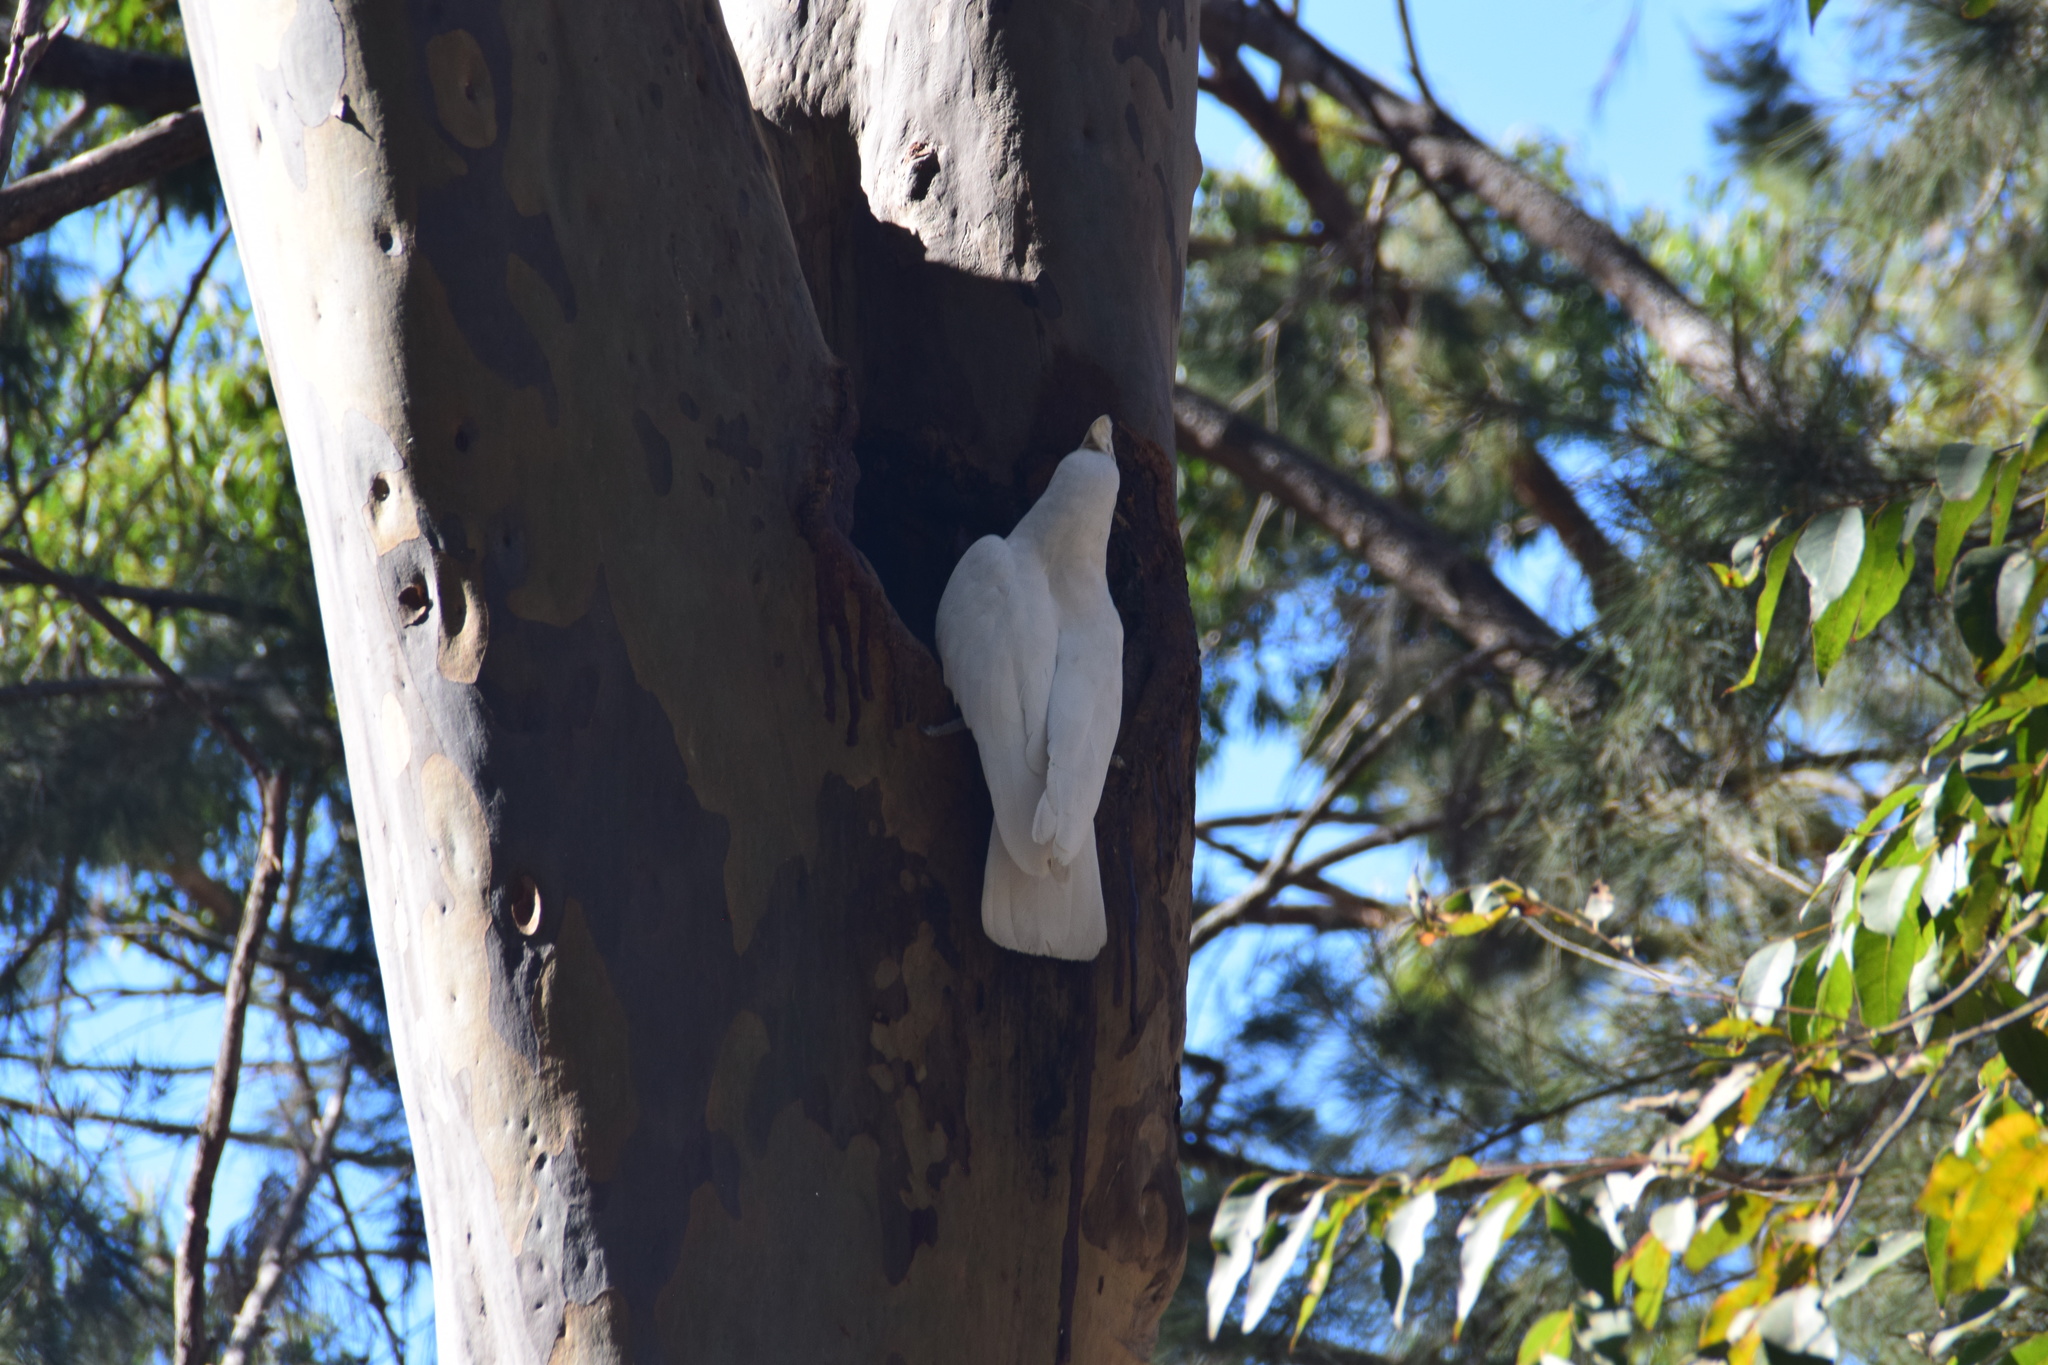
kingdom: Animalia
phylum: Chordata
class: Aves
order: Psittaciformes
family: Psittacidae
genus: Cacatua
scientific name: Cacatua galerita
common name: Sulphur-crested cockatoo
